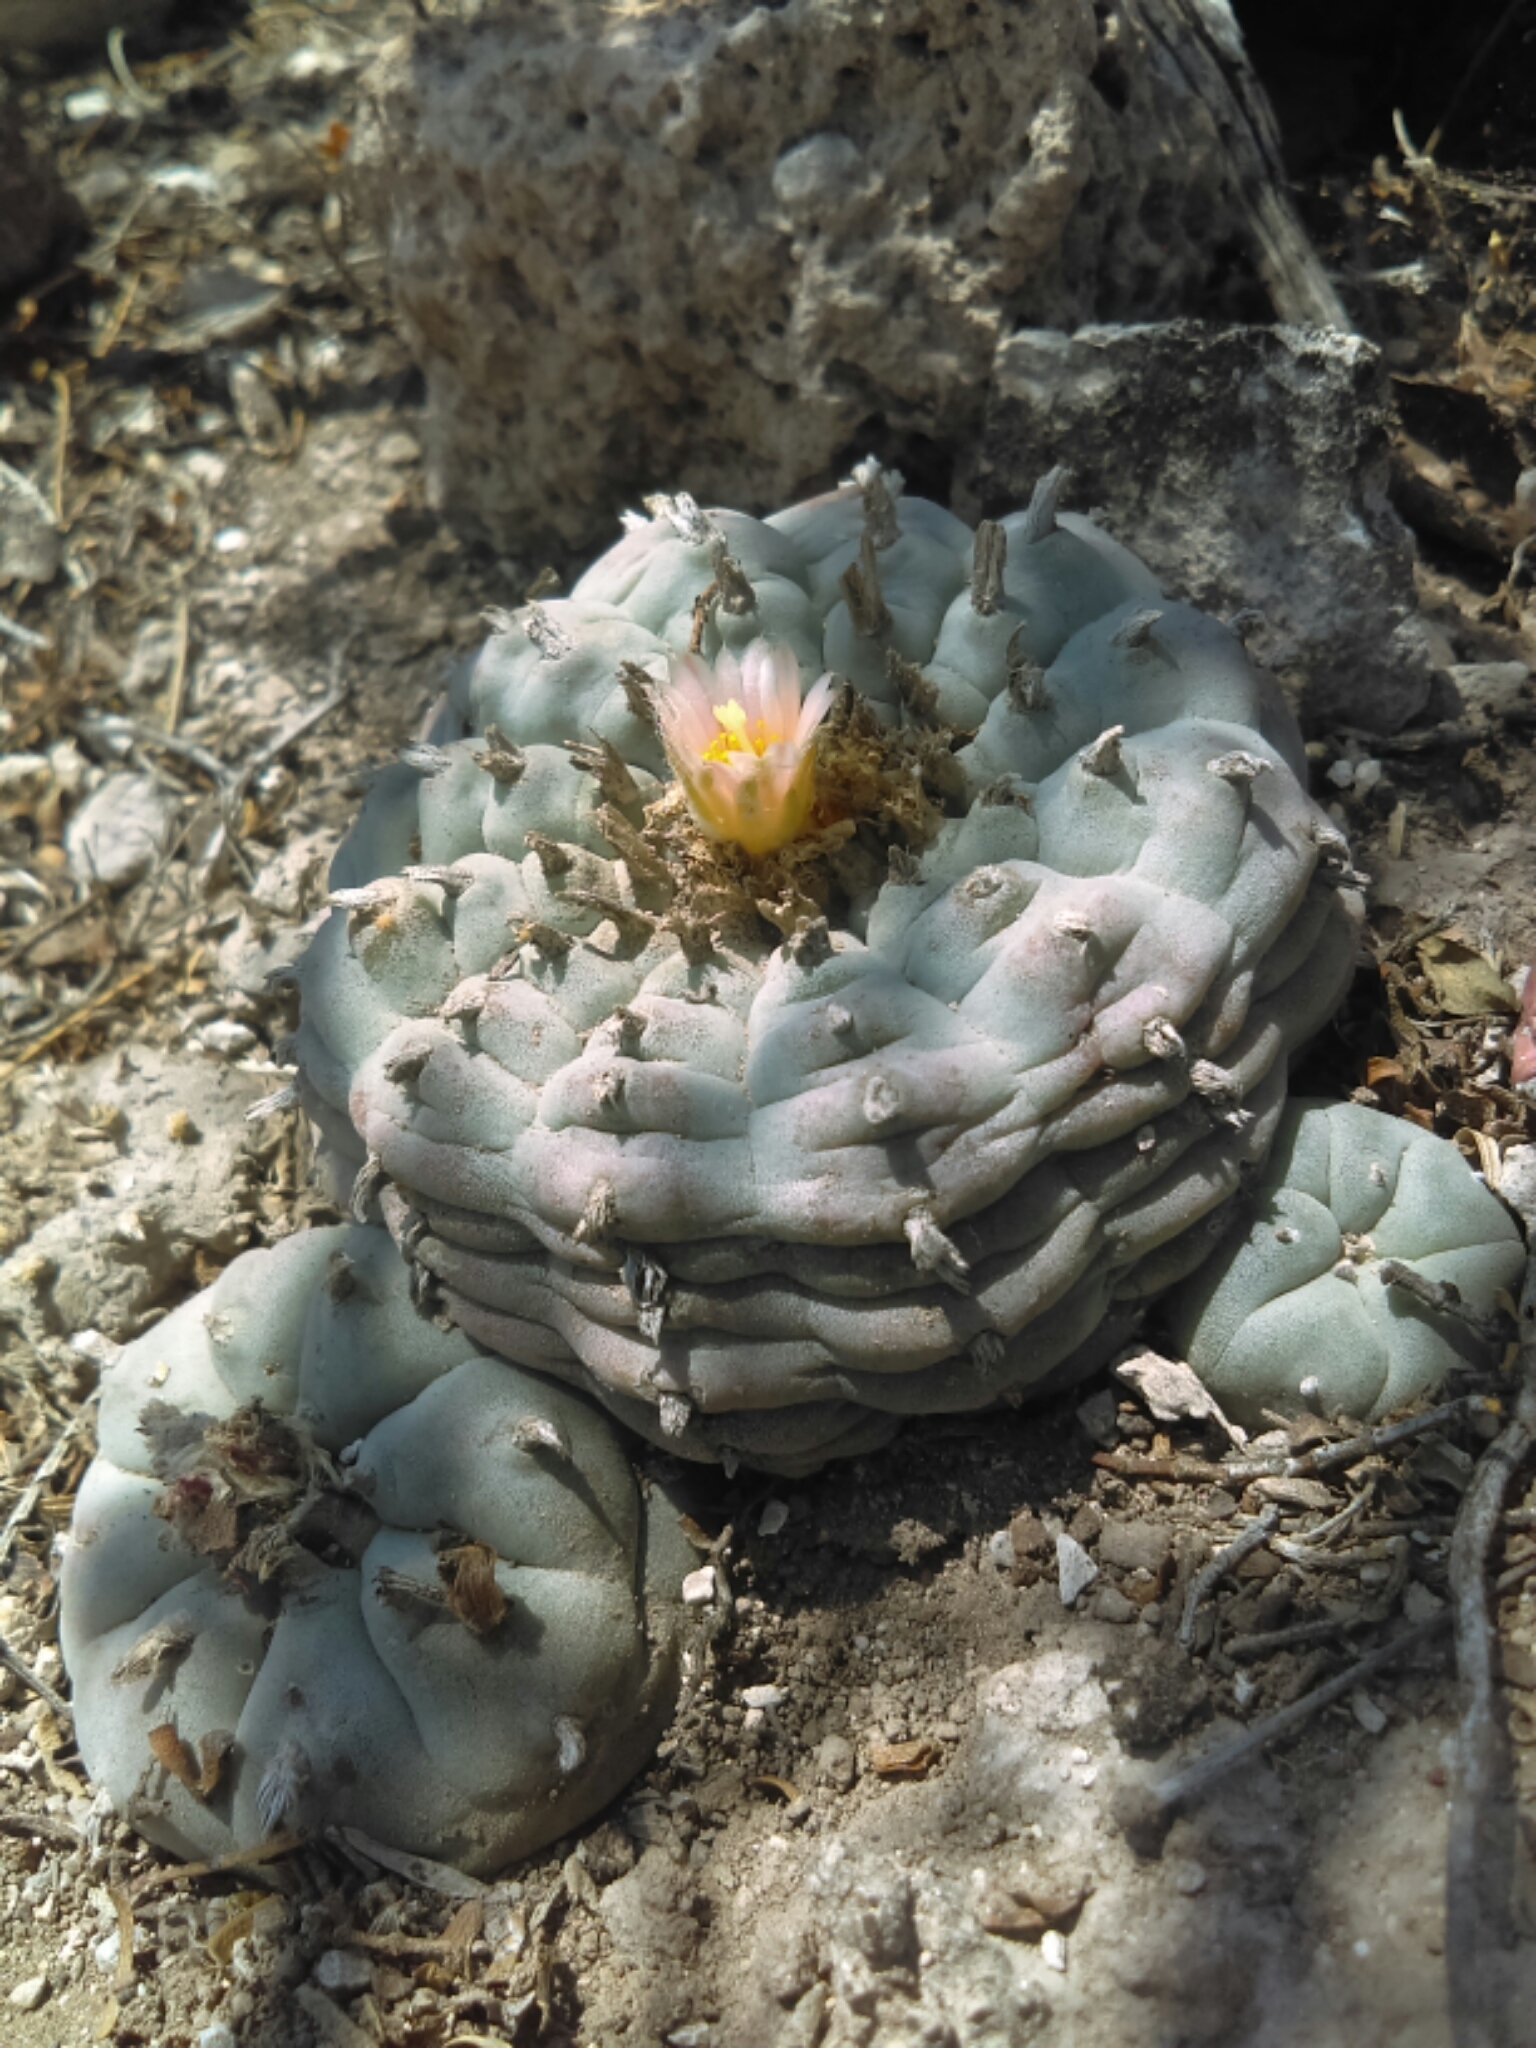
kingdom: Plantae
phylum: Tracheophyta
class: Magnoliopsida
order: Caryophyllales
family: Cactaceae
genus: Lophophora
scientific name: Lophophora williamsii
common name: Indian-dope
